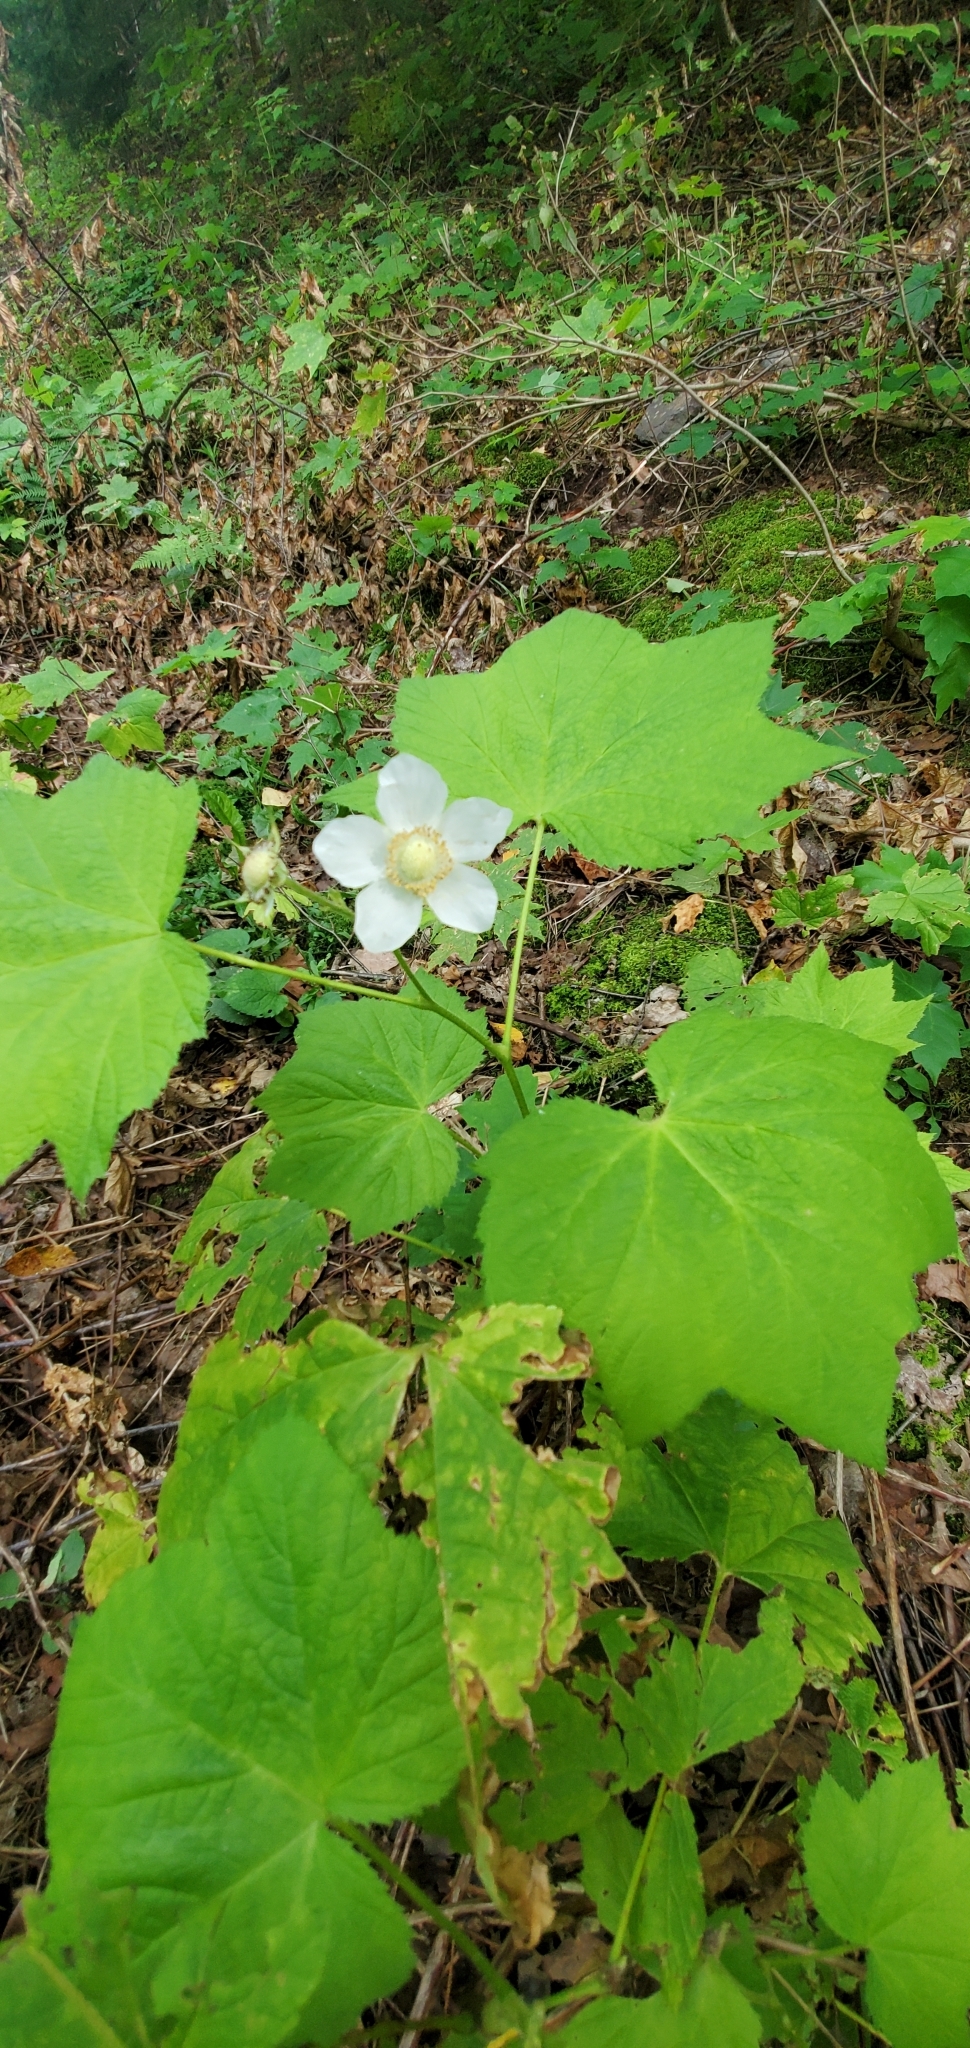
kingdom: Plantae
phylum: Tracheophyta
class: Magnoliopsida
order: Rosales
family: Rosaceae
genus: Rubus
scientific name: Rubus parviflorus
